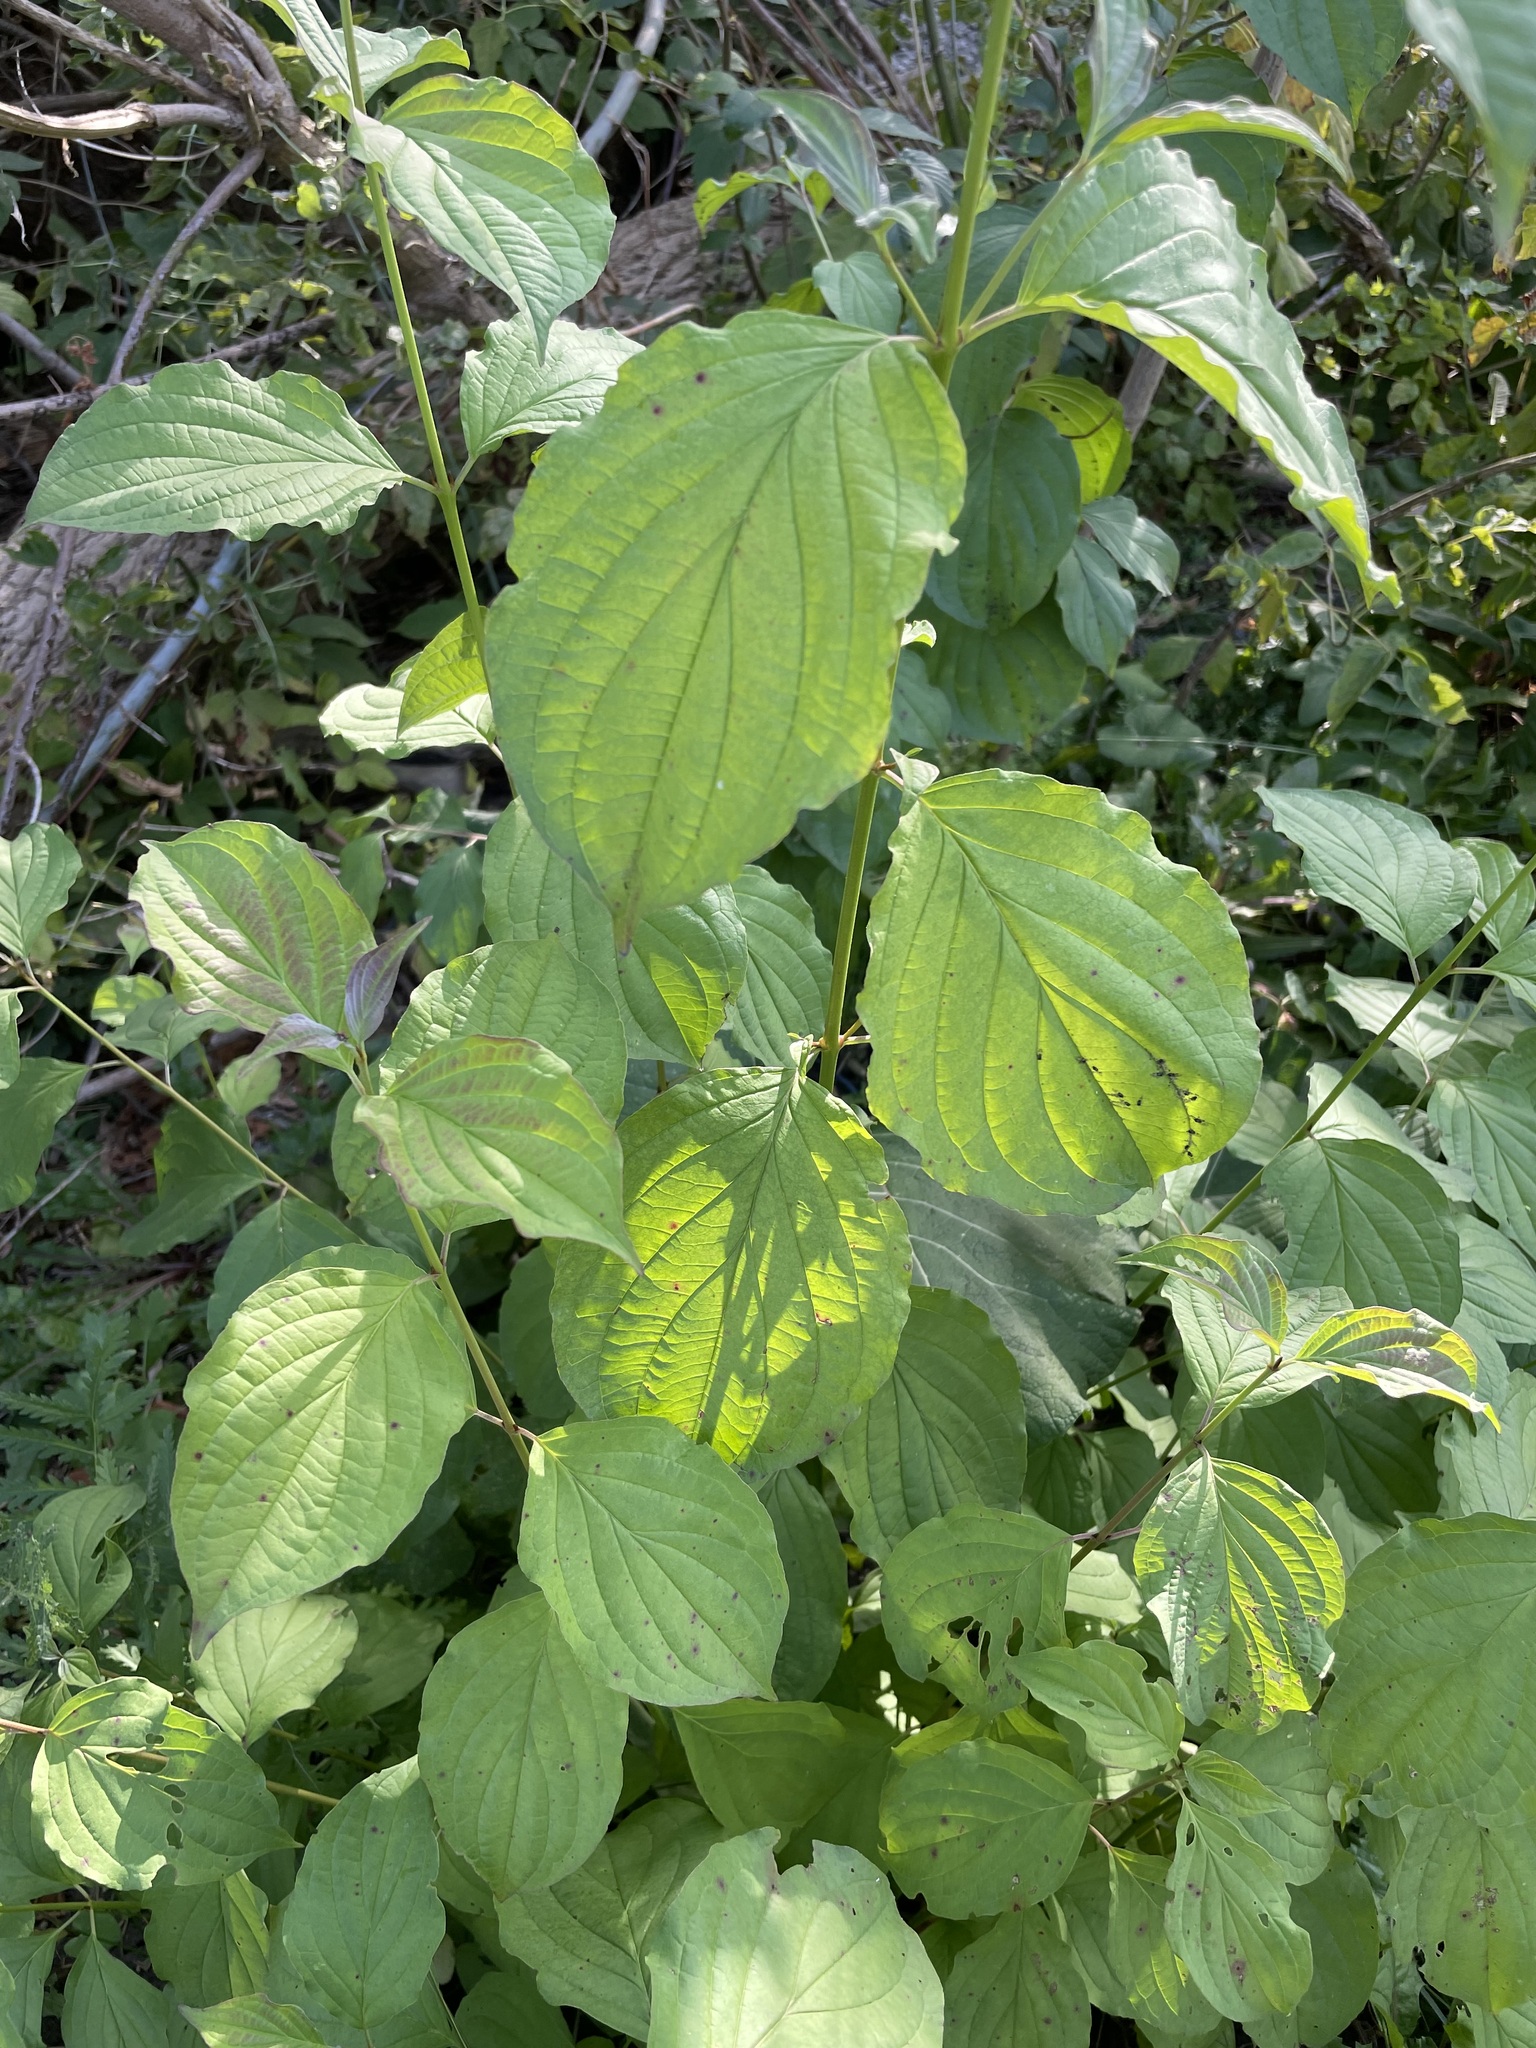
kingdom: Plantae
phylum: Tracheophyta
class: Magnoliopsida
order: Cornales
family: Cornaceae
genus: Cornus
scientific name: Cornus sanguinea
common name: Dogwood
